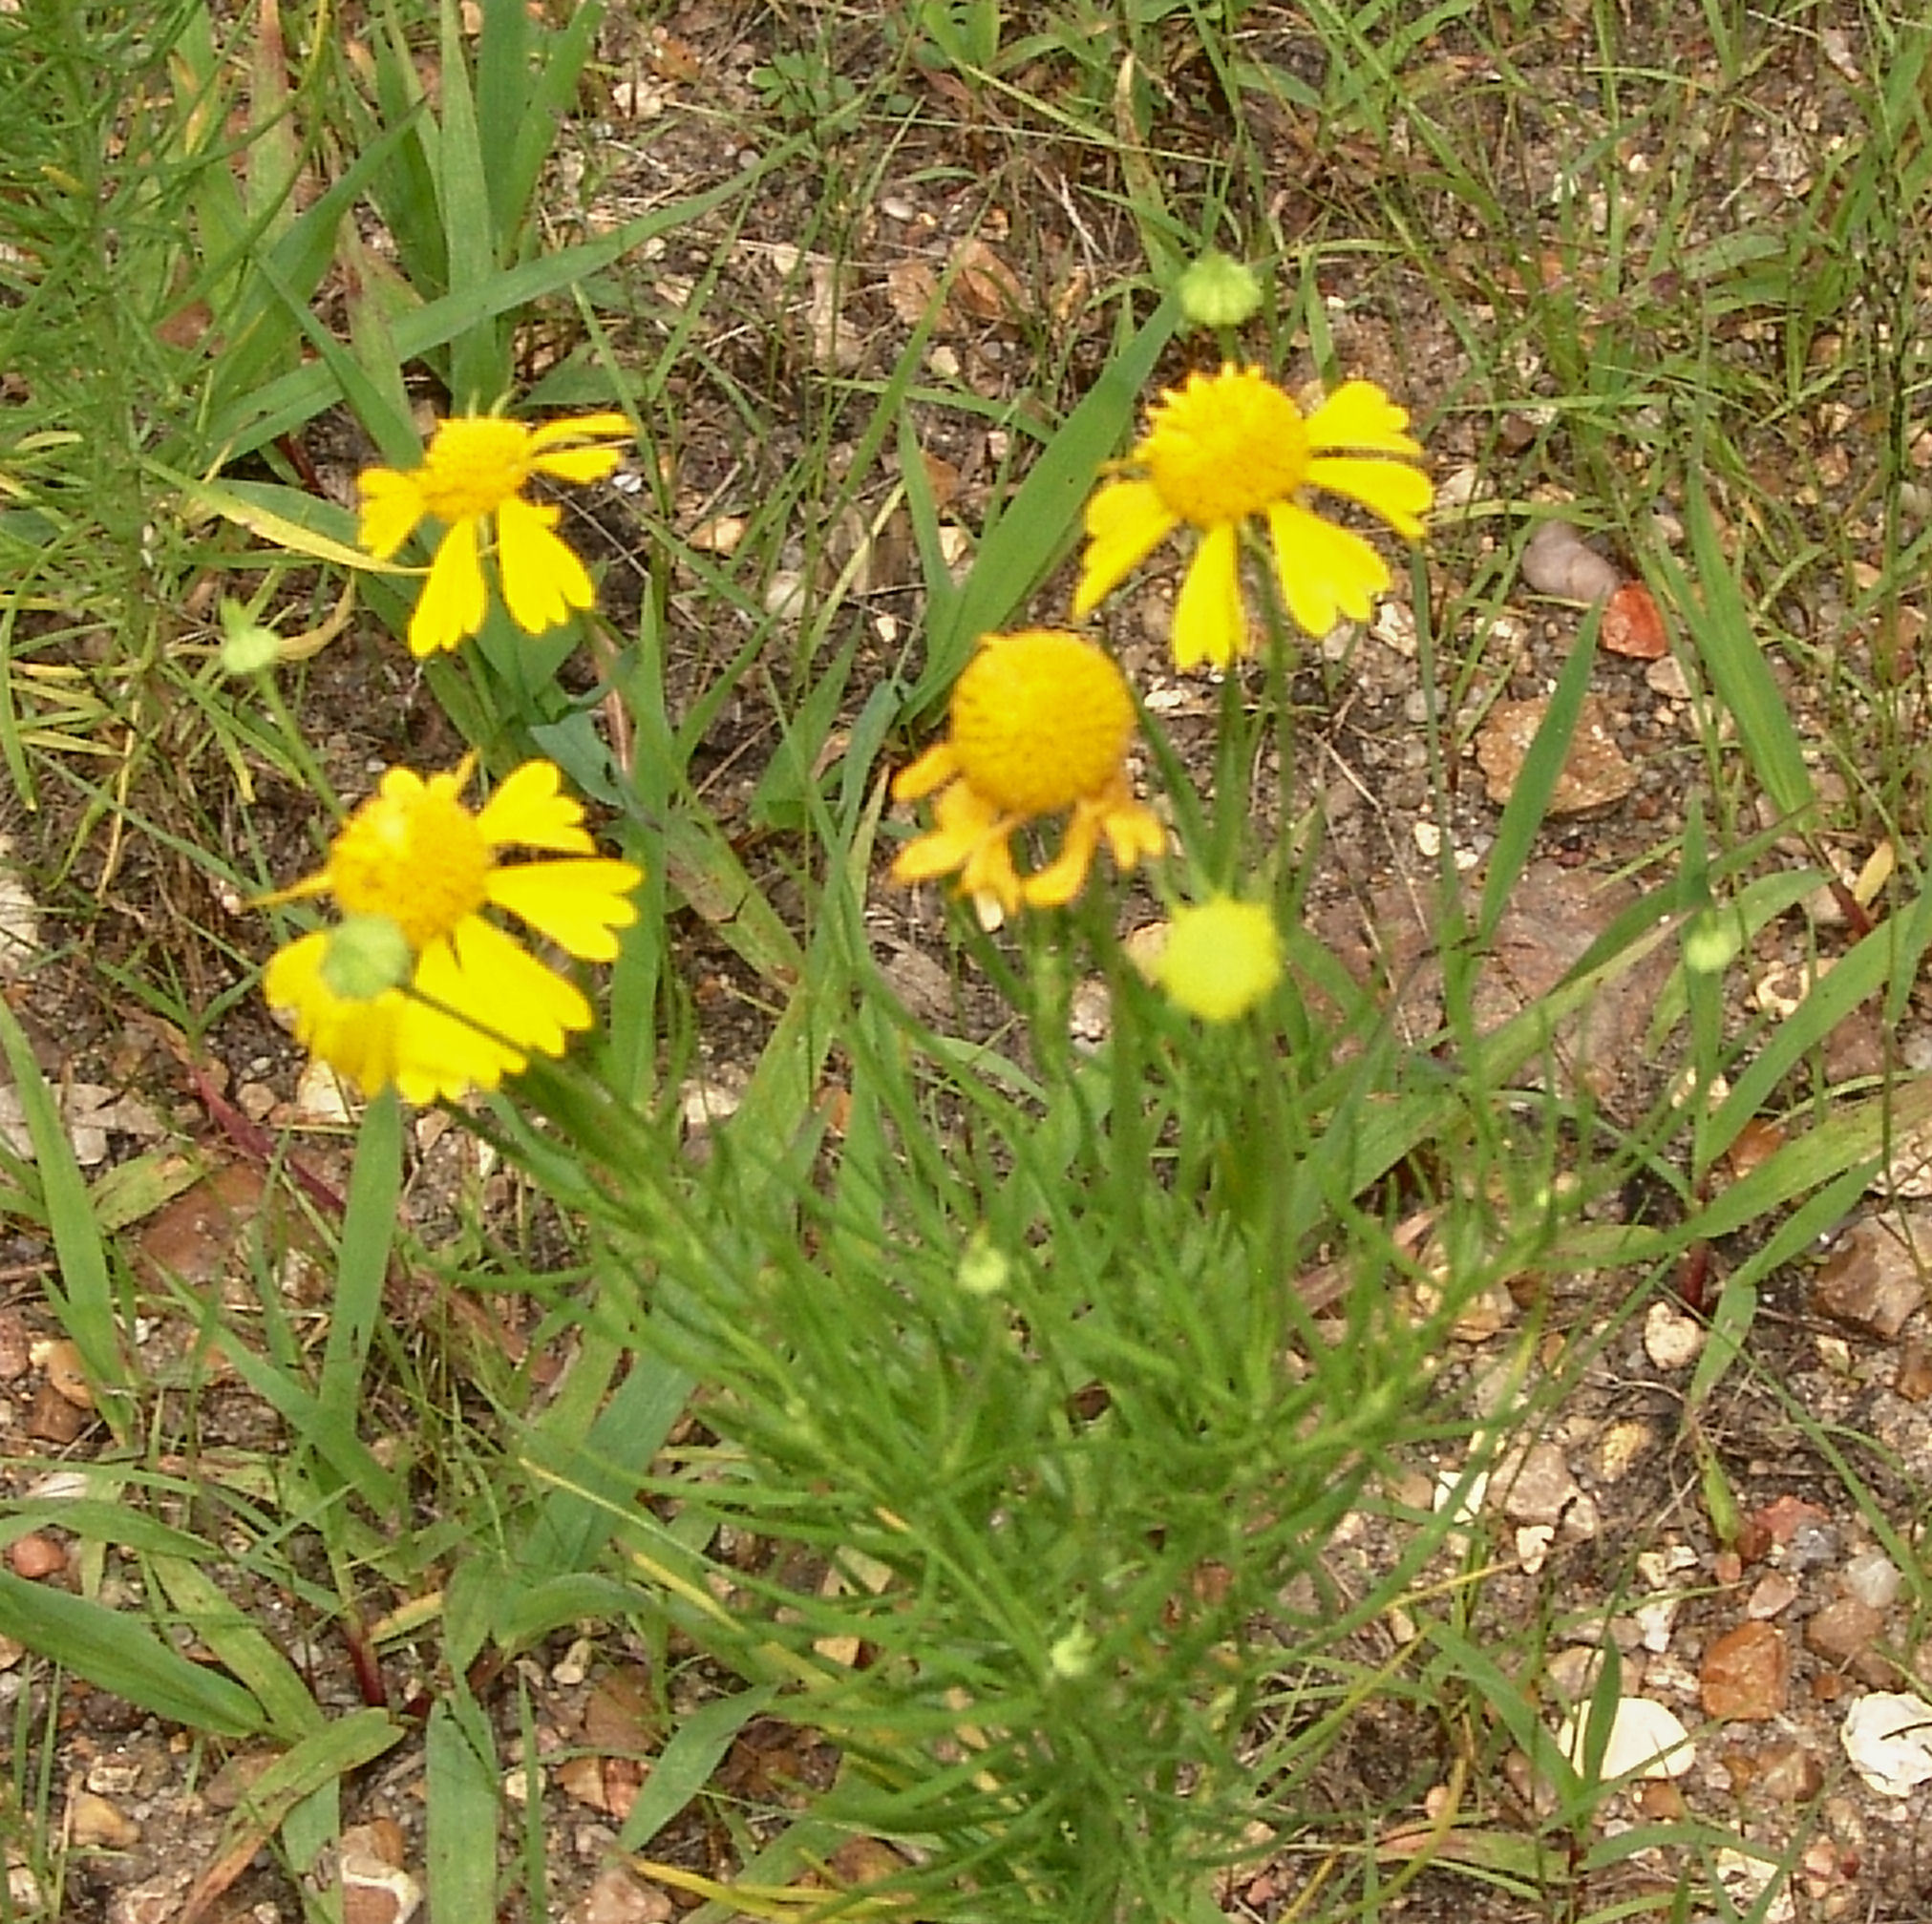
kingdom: Plantae
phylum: Tracheophyta
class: Magnoliopsida
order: Asterales
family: Asteraceae
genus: Helenium
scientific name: Helenium amarum
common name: Bitter sneezeweed
